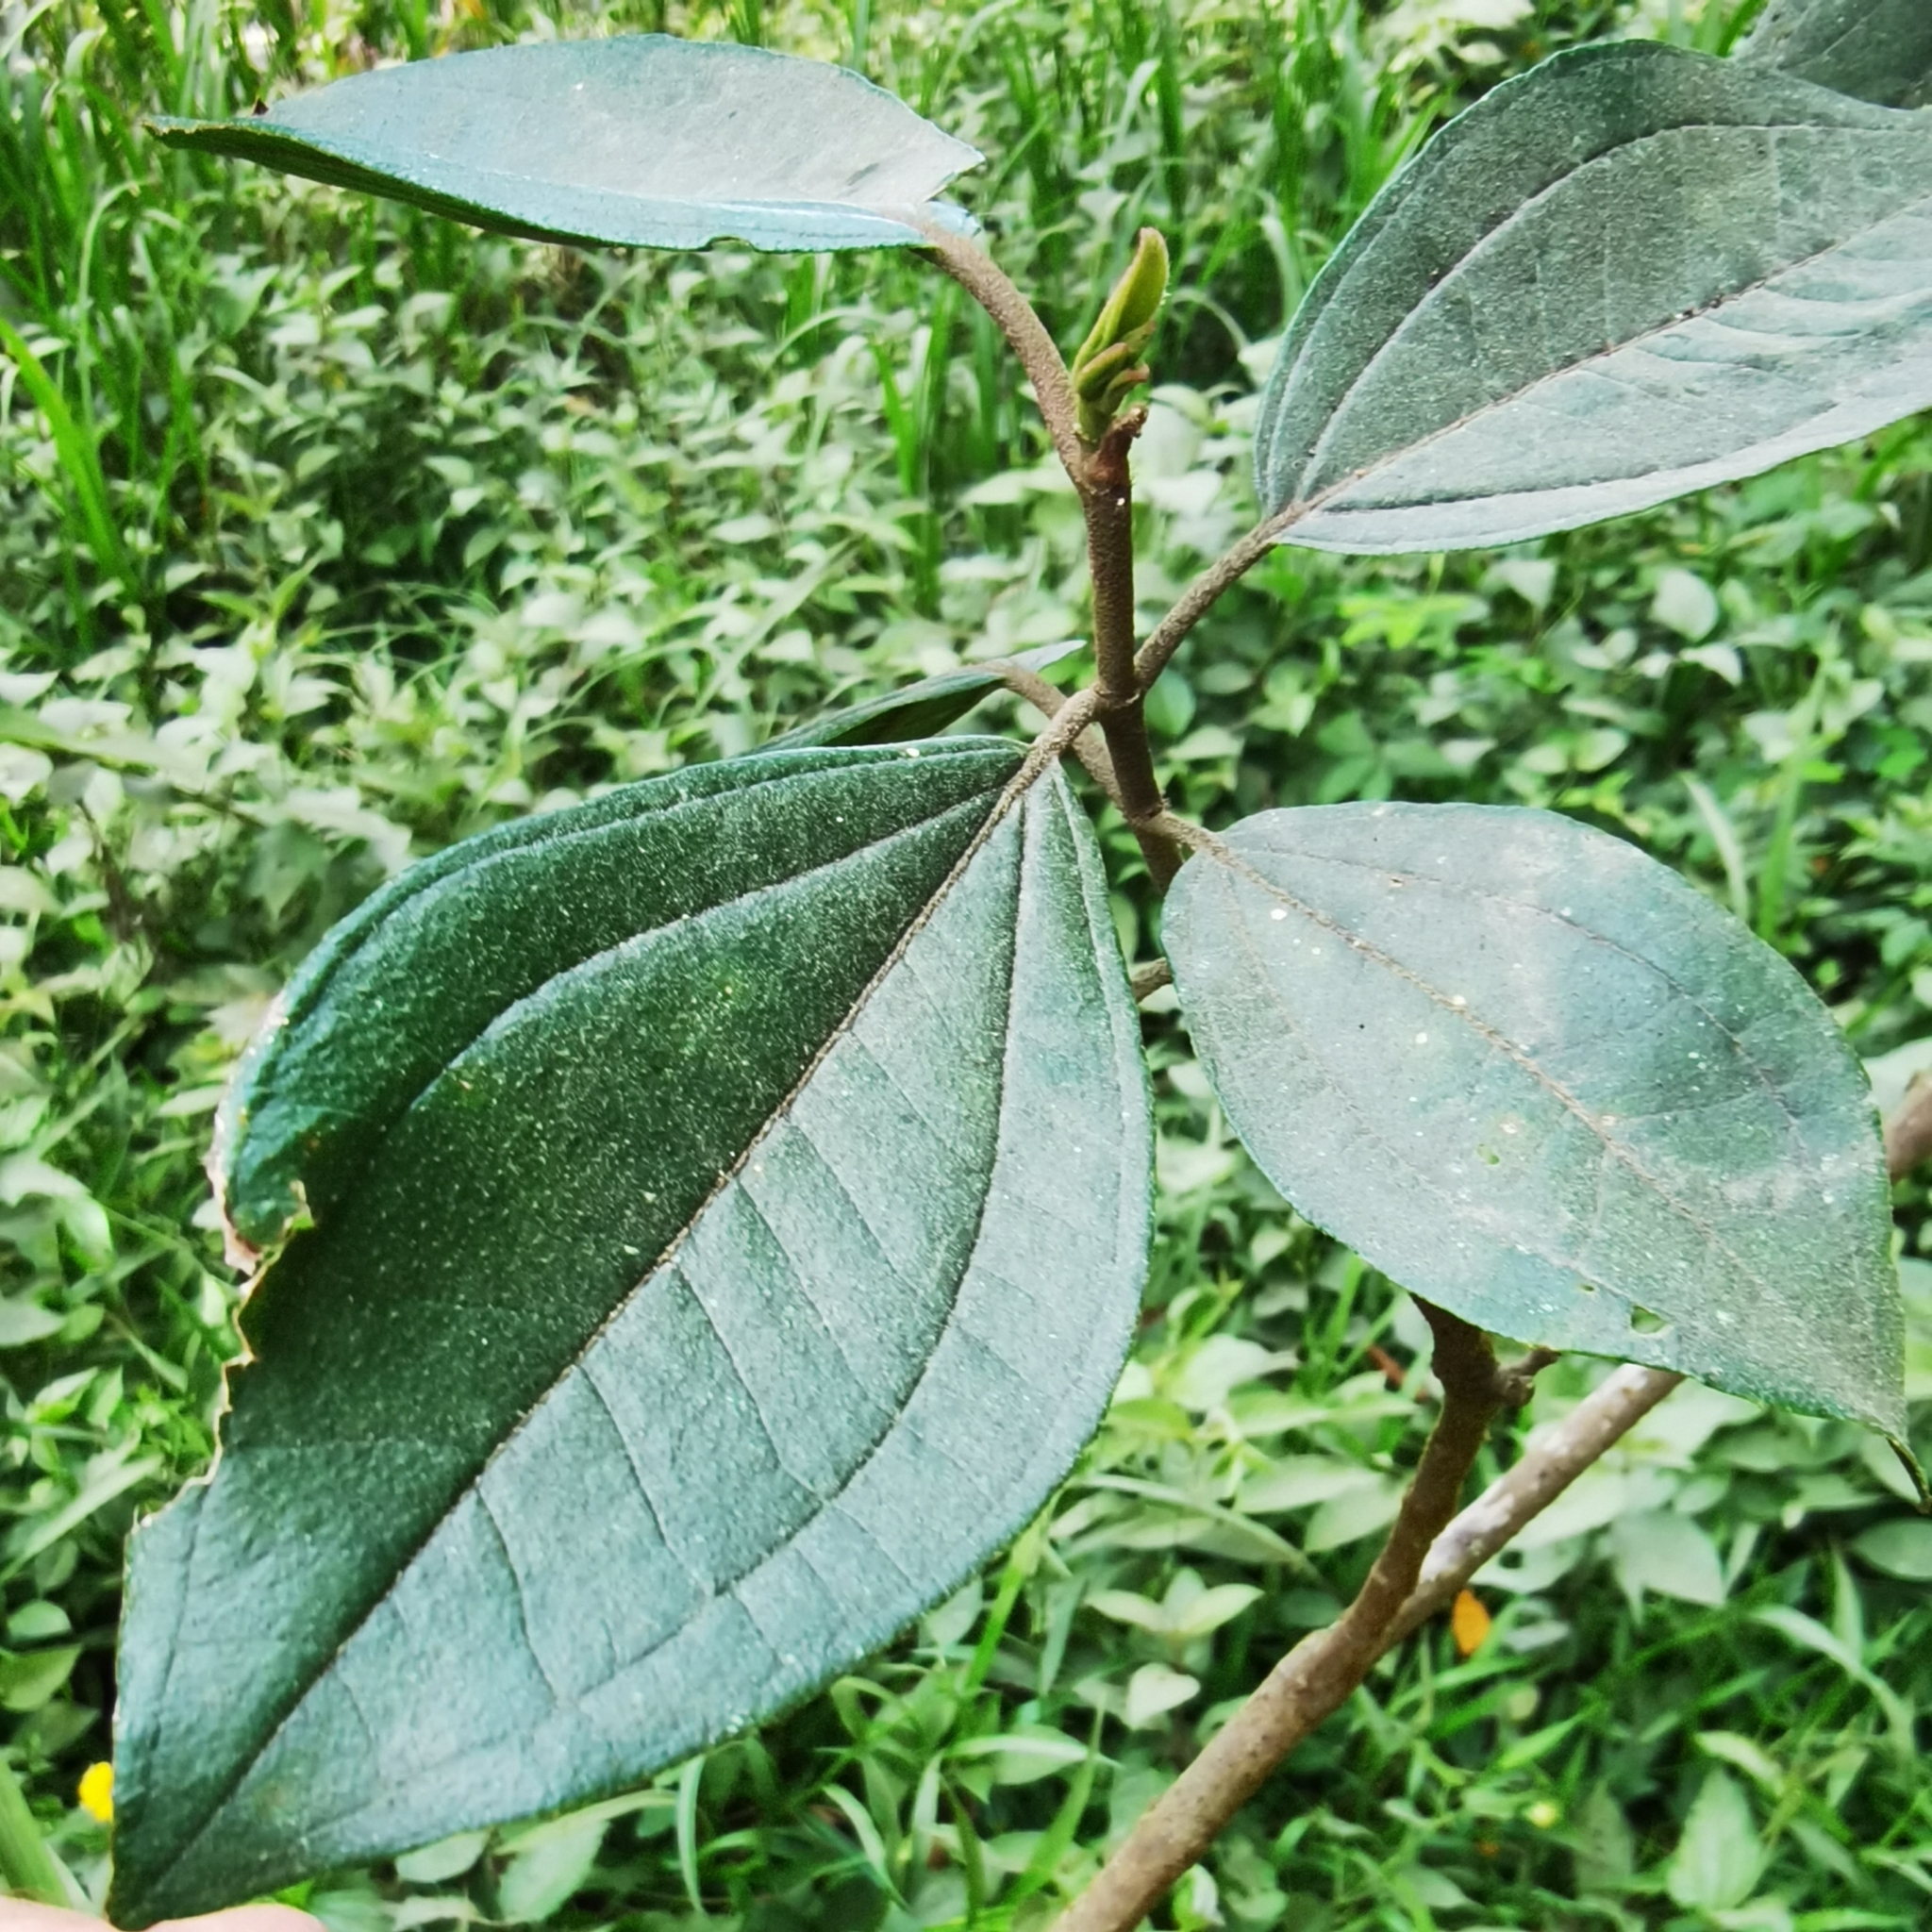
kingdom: Plantae
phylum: Tracheophyta
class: Magnoliopsida
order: Myrtales
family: Melastomataceae
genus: Henriettea
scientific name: Henriettea fascicularis
